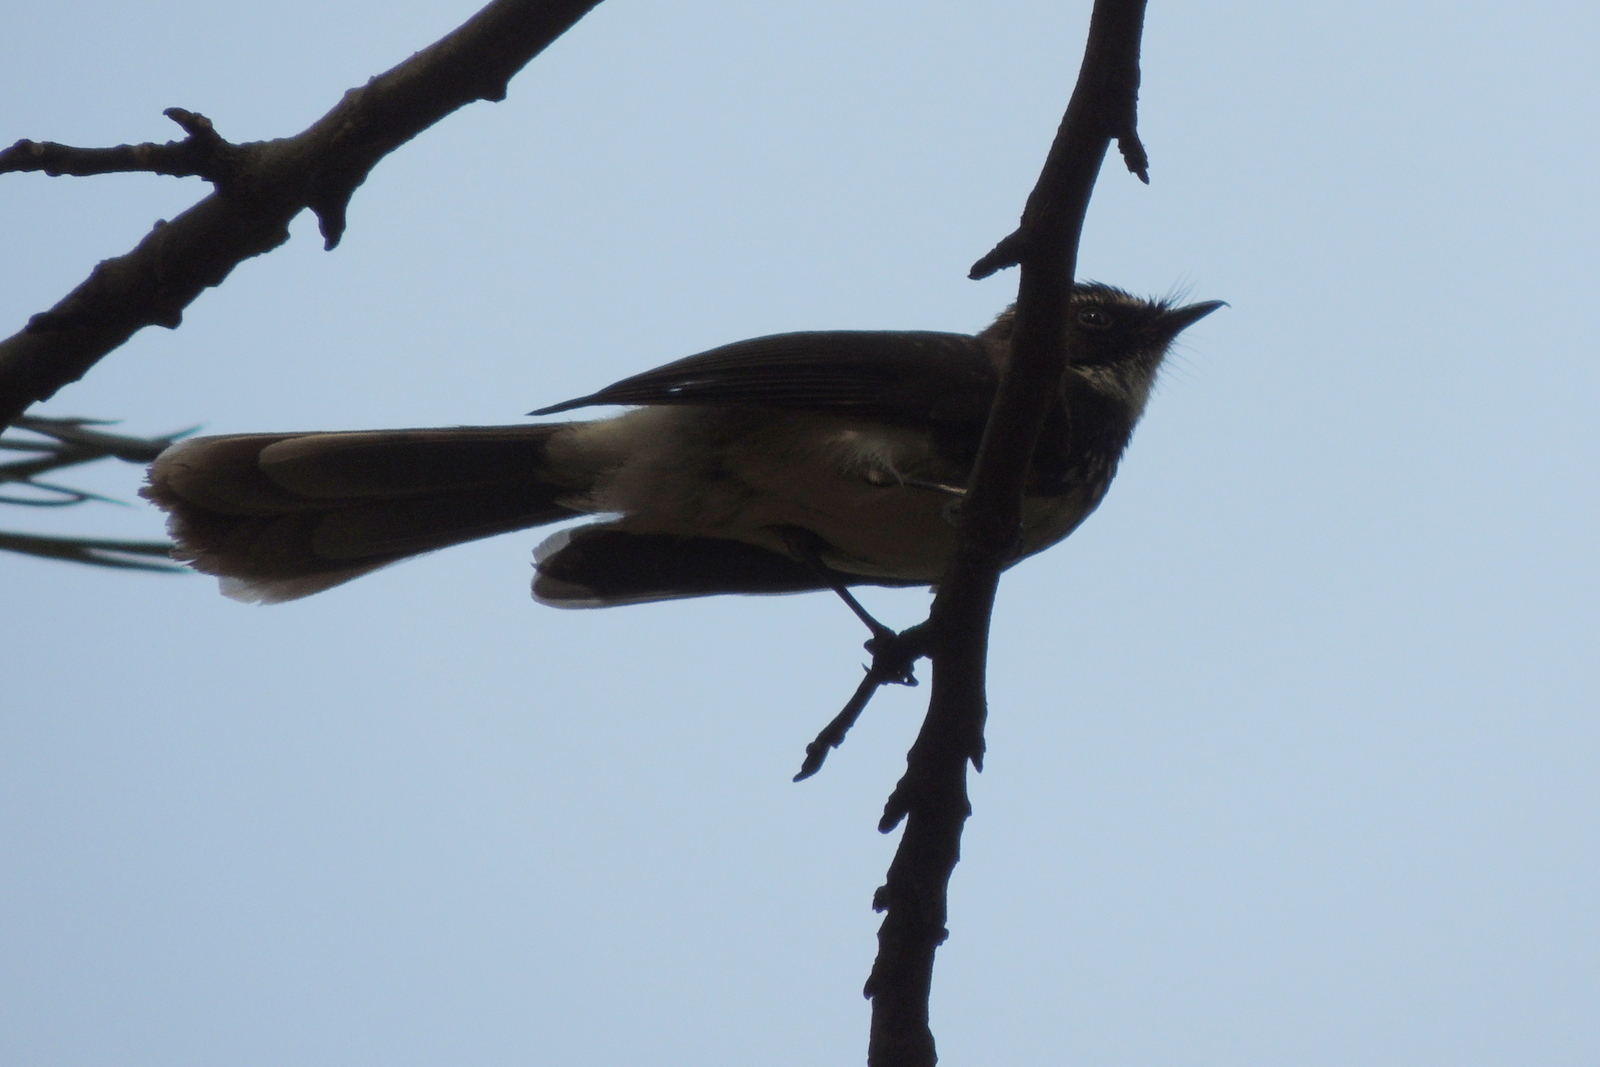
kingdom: Animalia
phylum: Chordata
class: Aves
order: Passeriformes
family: Rhipiduridae
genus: Rhipidura
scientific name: Rhipidura albogularis
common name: White-spotted fantail
